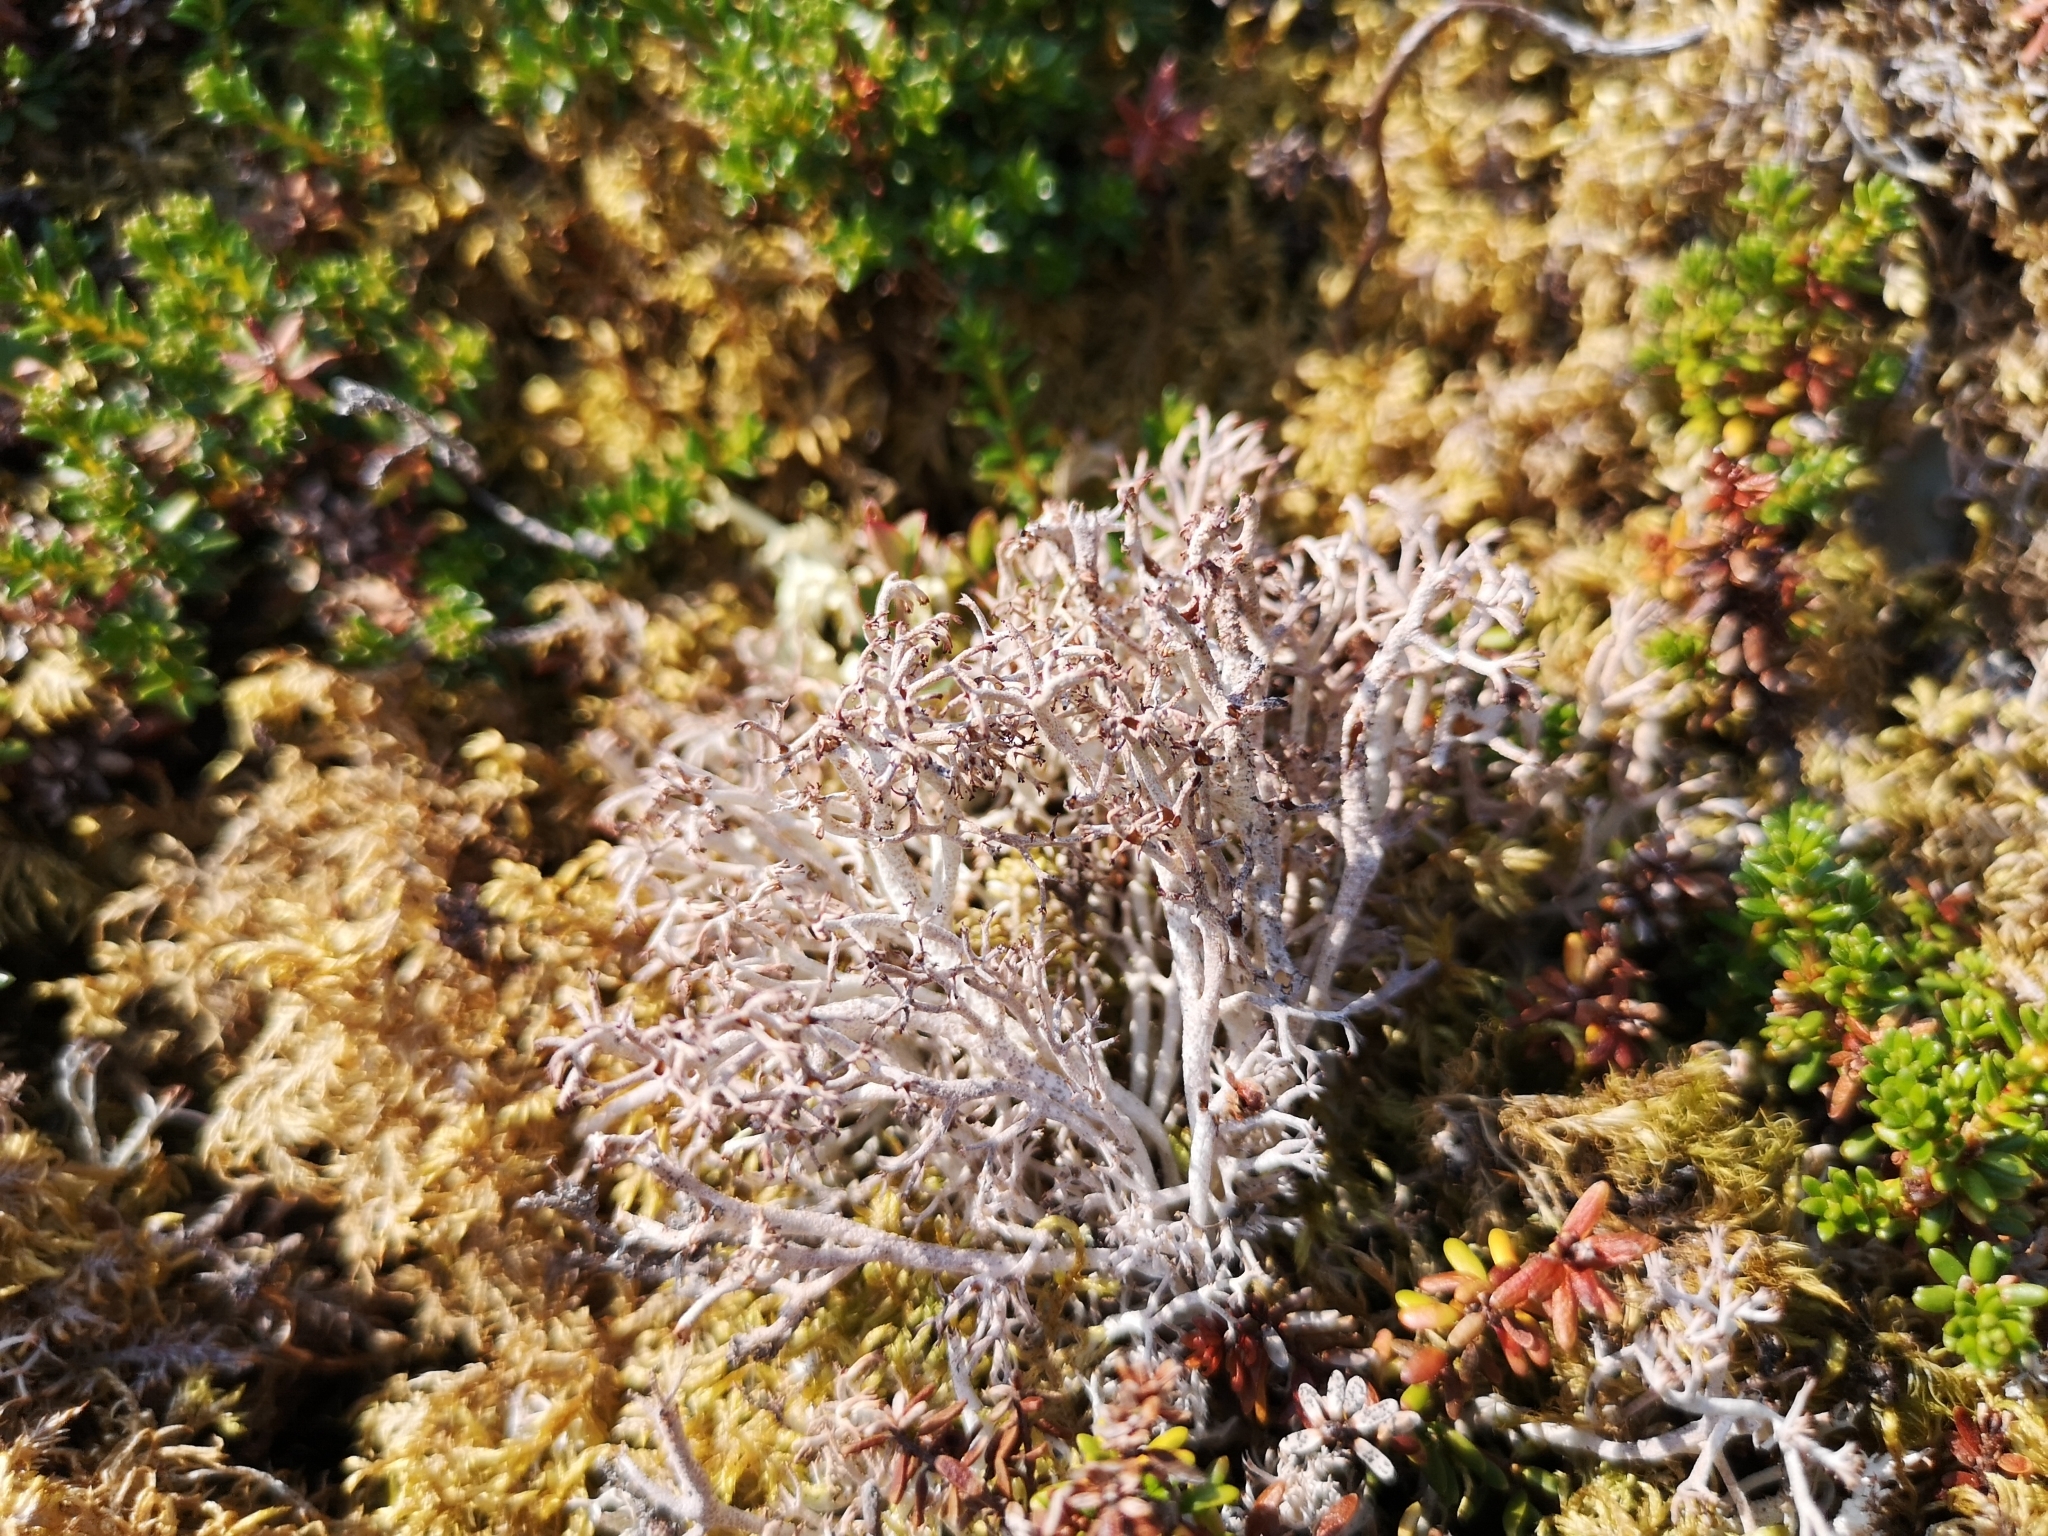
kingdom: Fungi
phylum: Ascomycota
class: Lecanoromycetes
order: Lecanorales
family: Cladoniaceae
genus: Cladonia
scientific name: Cladonia rangiferina
